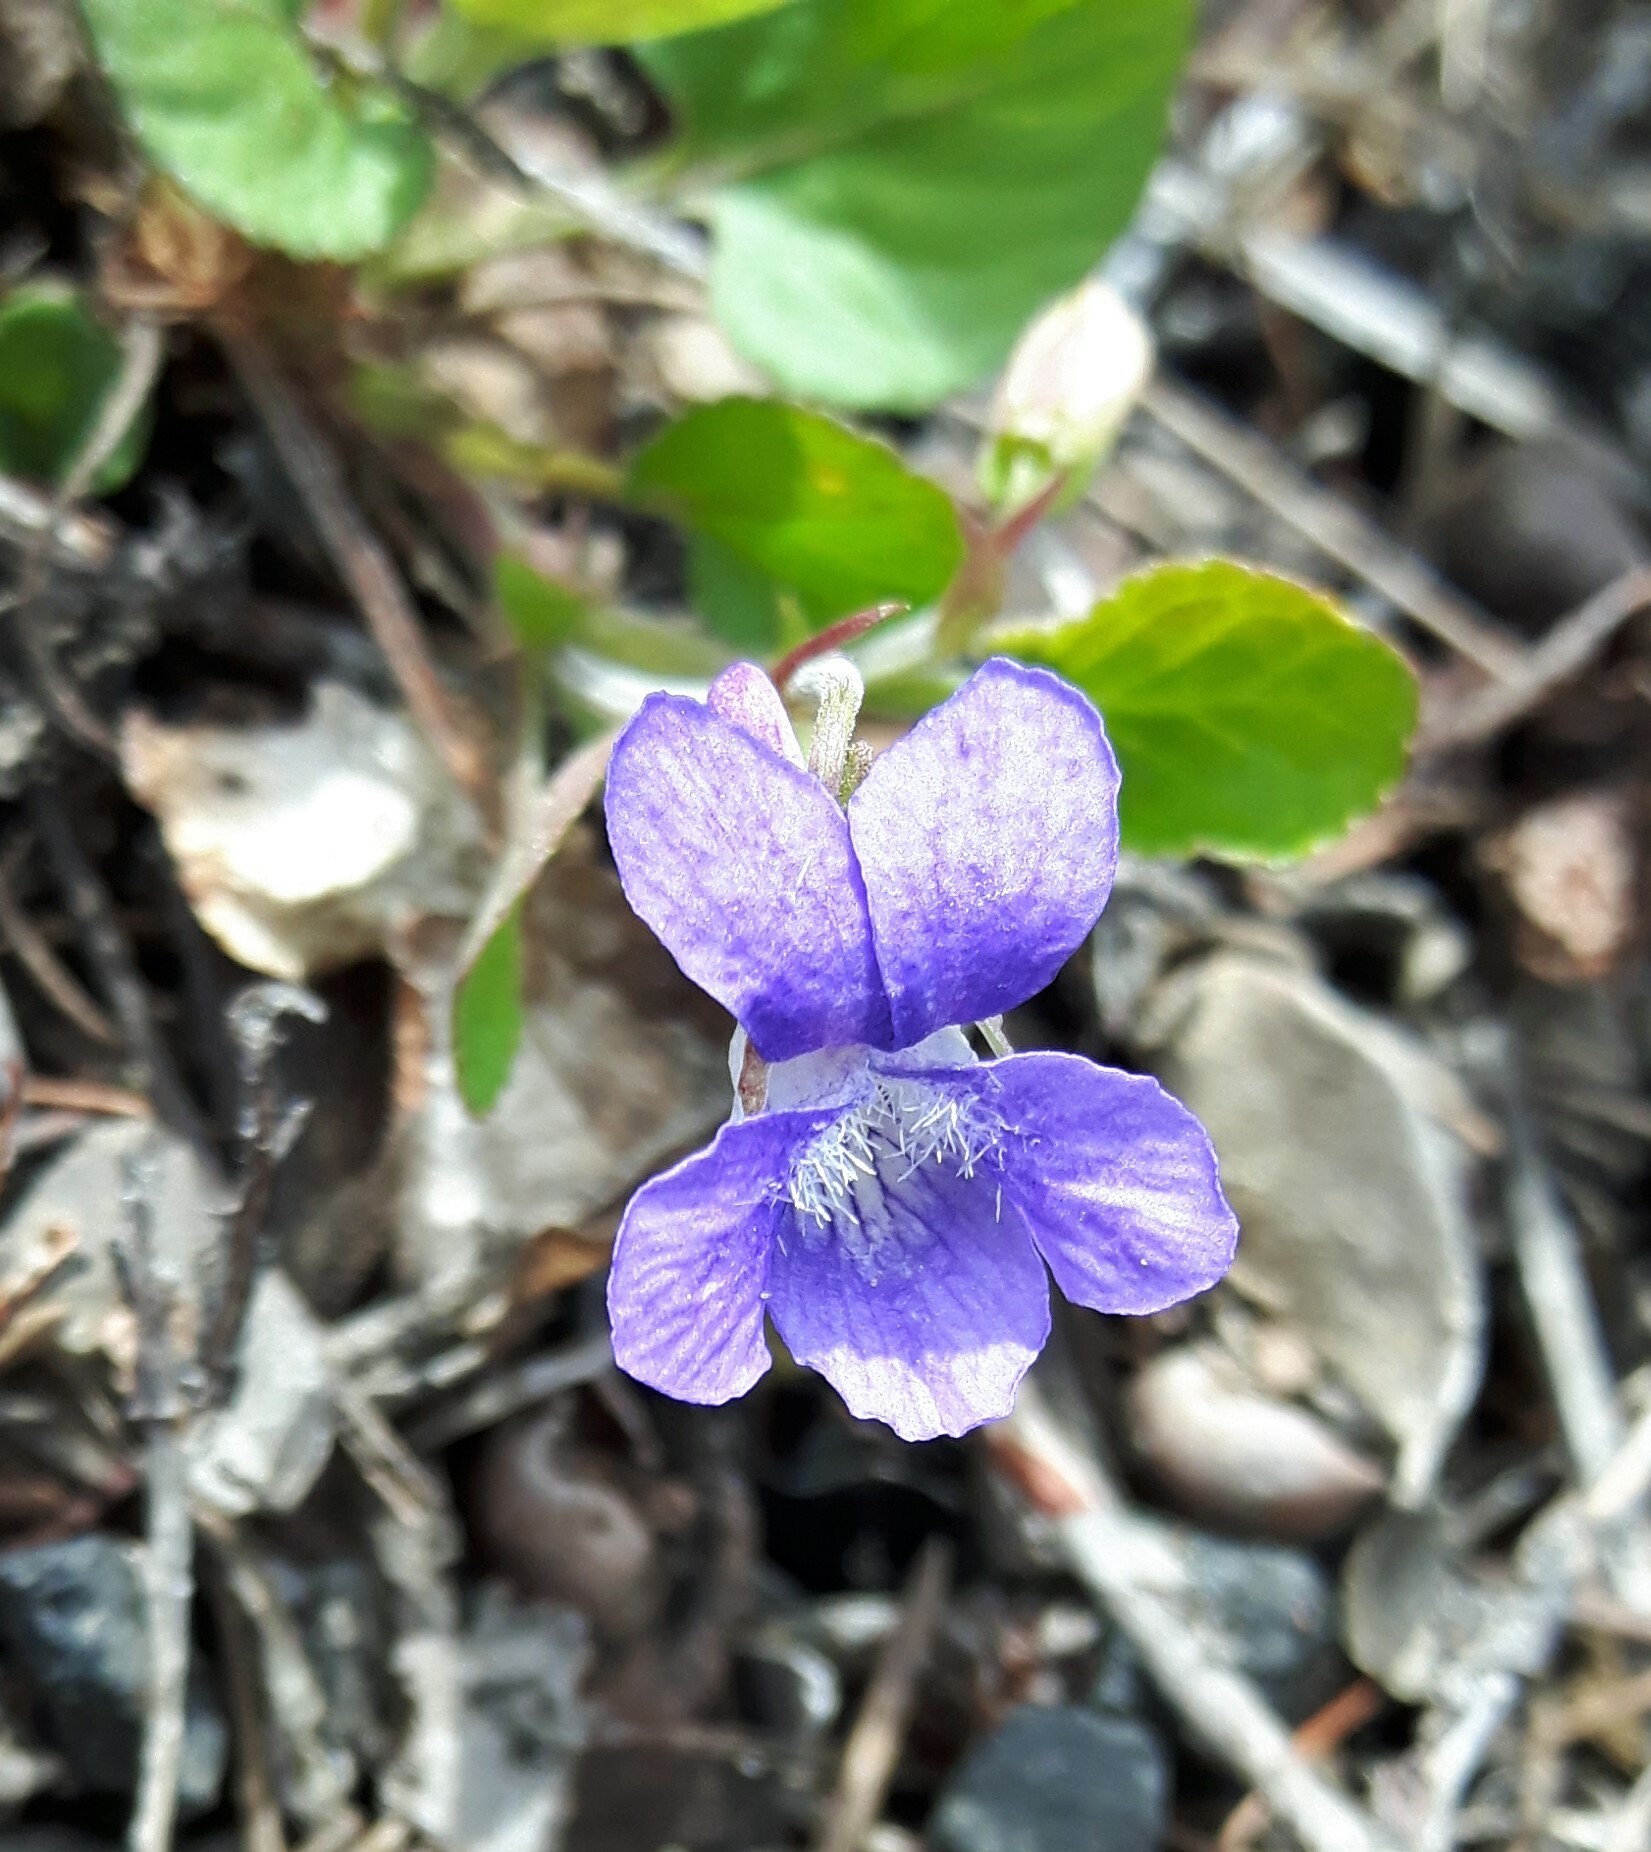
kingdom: Plantae
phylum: Tracheophyta
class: Magnoliopsida
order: Malpighiales
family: Violaceae
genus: Viola
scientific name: Viola adunca
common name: Sand violet
